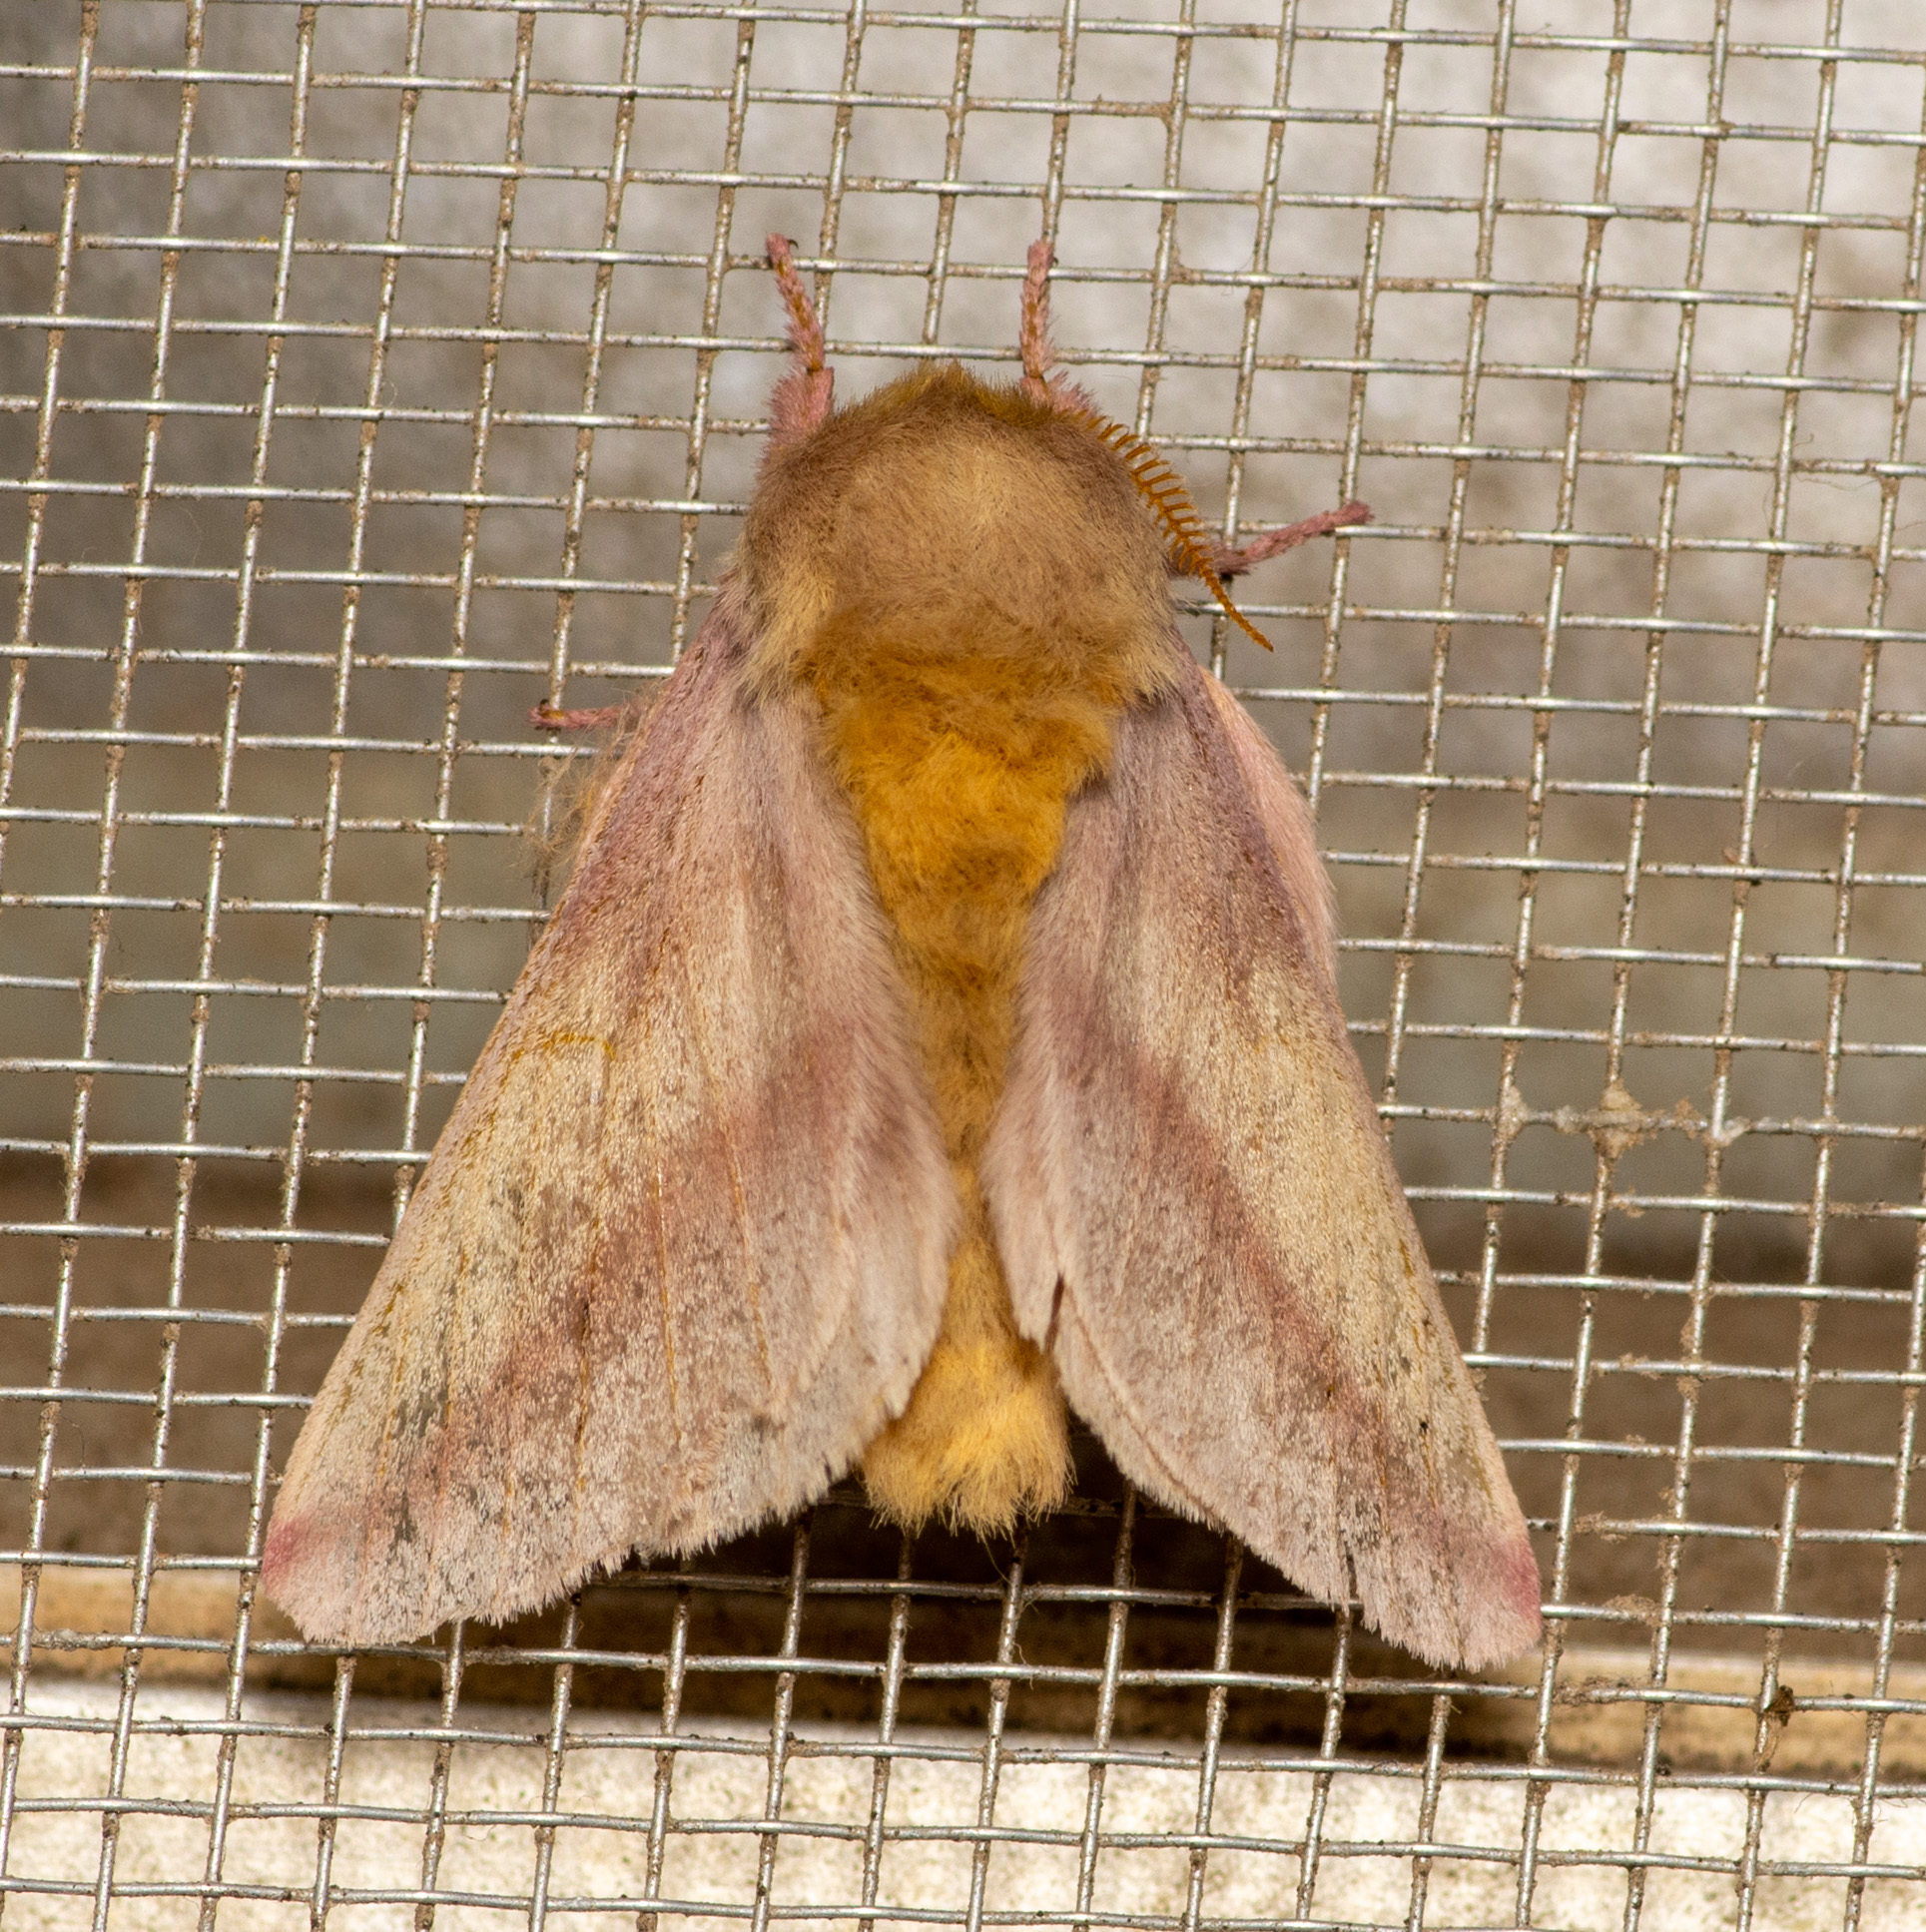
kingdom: Animalia
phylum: Arthropoda
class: Insecta
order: Lepidoptera
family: Saturniidae
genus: Dryocampa
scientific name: Dryocampa
